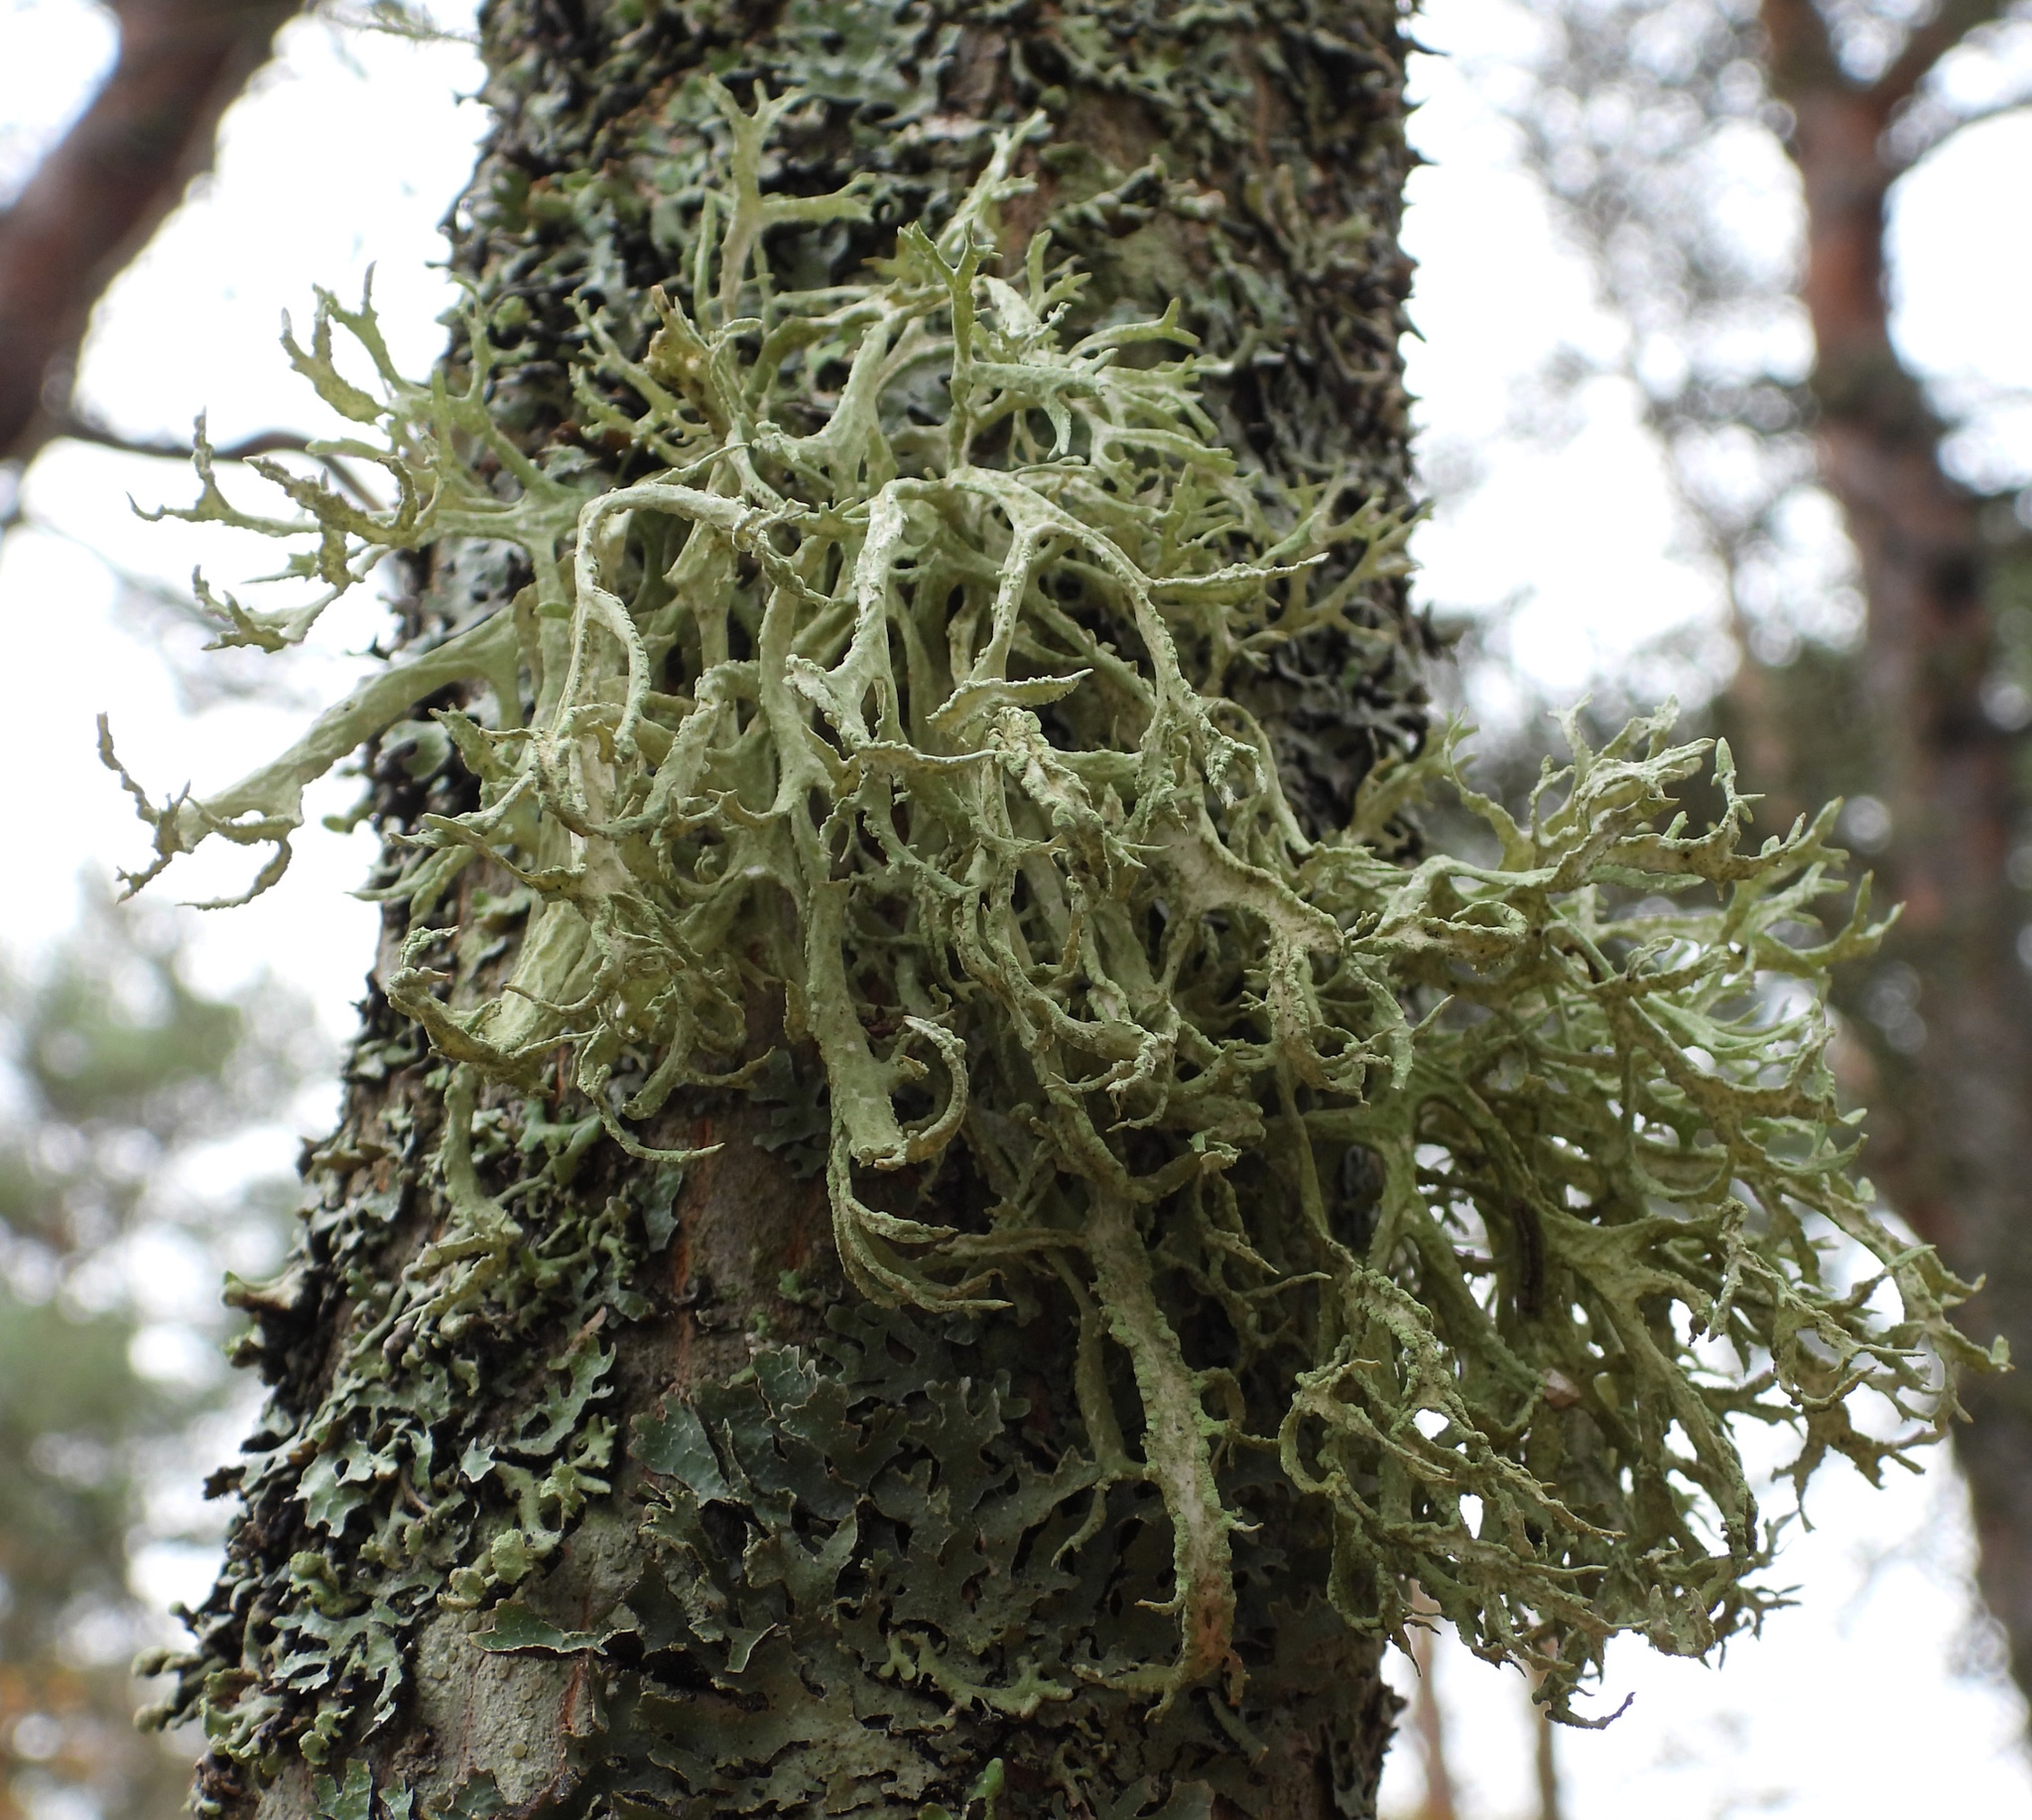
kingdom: Fungi
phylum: Ascomycota
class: Lecanoromycetes
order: Lecanorales
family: Parmeliaceae
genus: Evernia
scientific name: Evernia prunastri
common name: Oak moss
